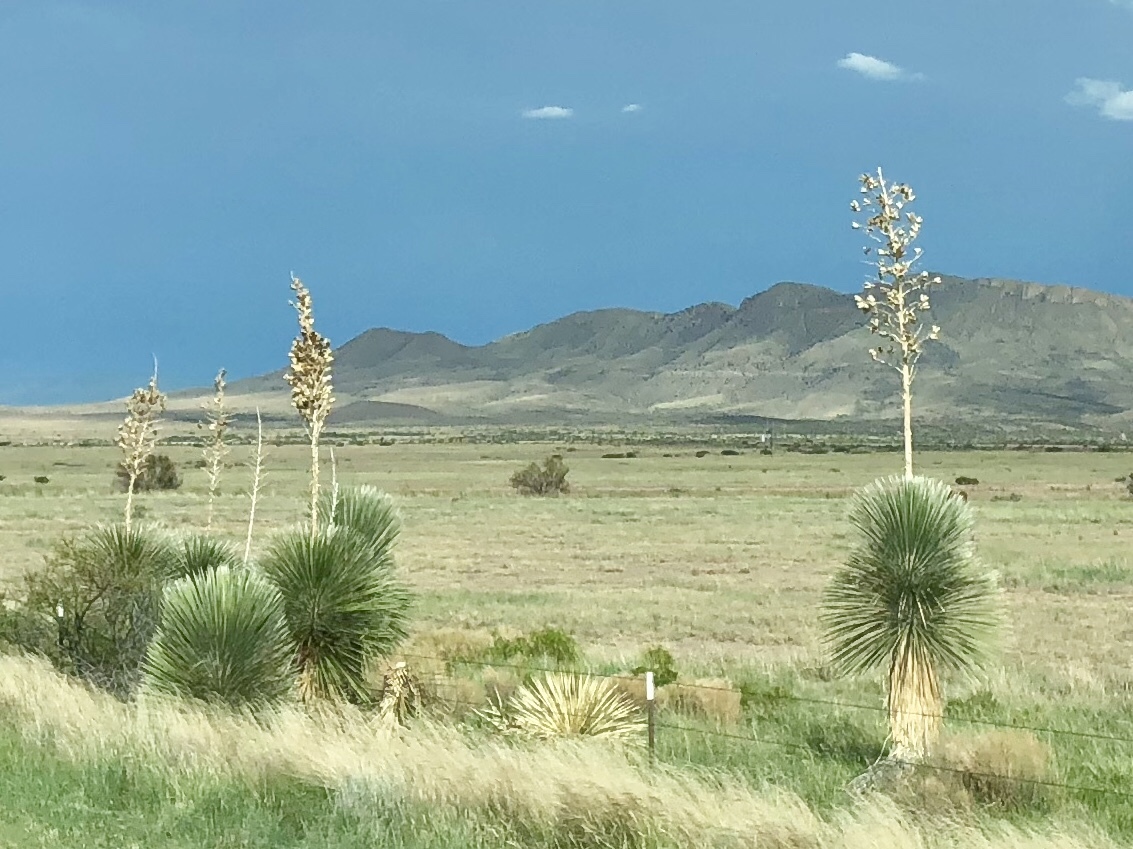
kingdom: Plantae
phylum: Tracheophyta
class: Liliopsida
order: Asparagales
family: Asparagaceae
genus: Yucca
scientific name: Yucca elata
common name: Palmella
